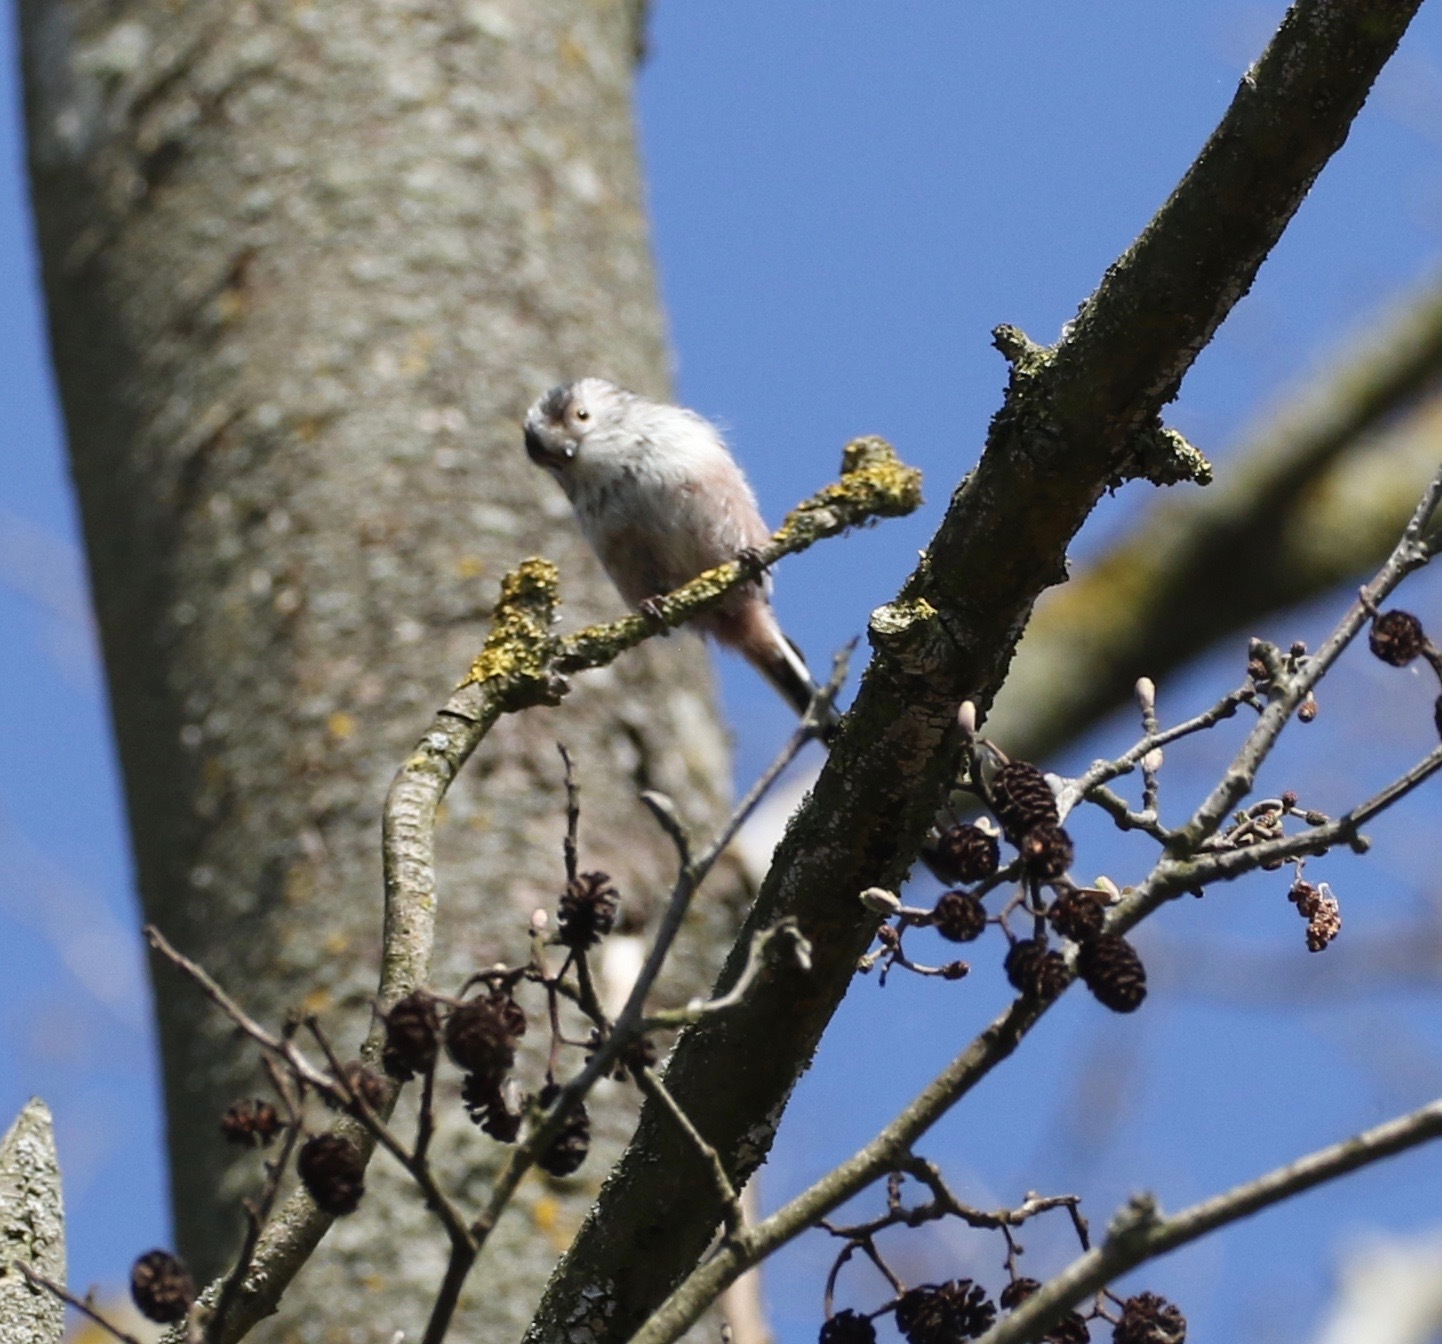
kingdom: Animalia
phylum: Chordata
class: Aves
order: Passeriformes
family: Aegithalidae
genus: Aegithalos
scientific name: Aegithalos caudatus
